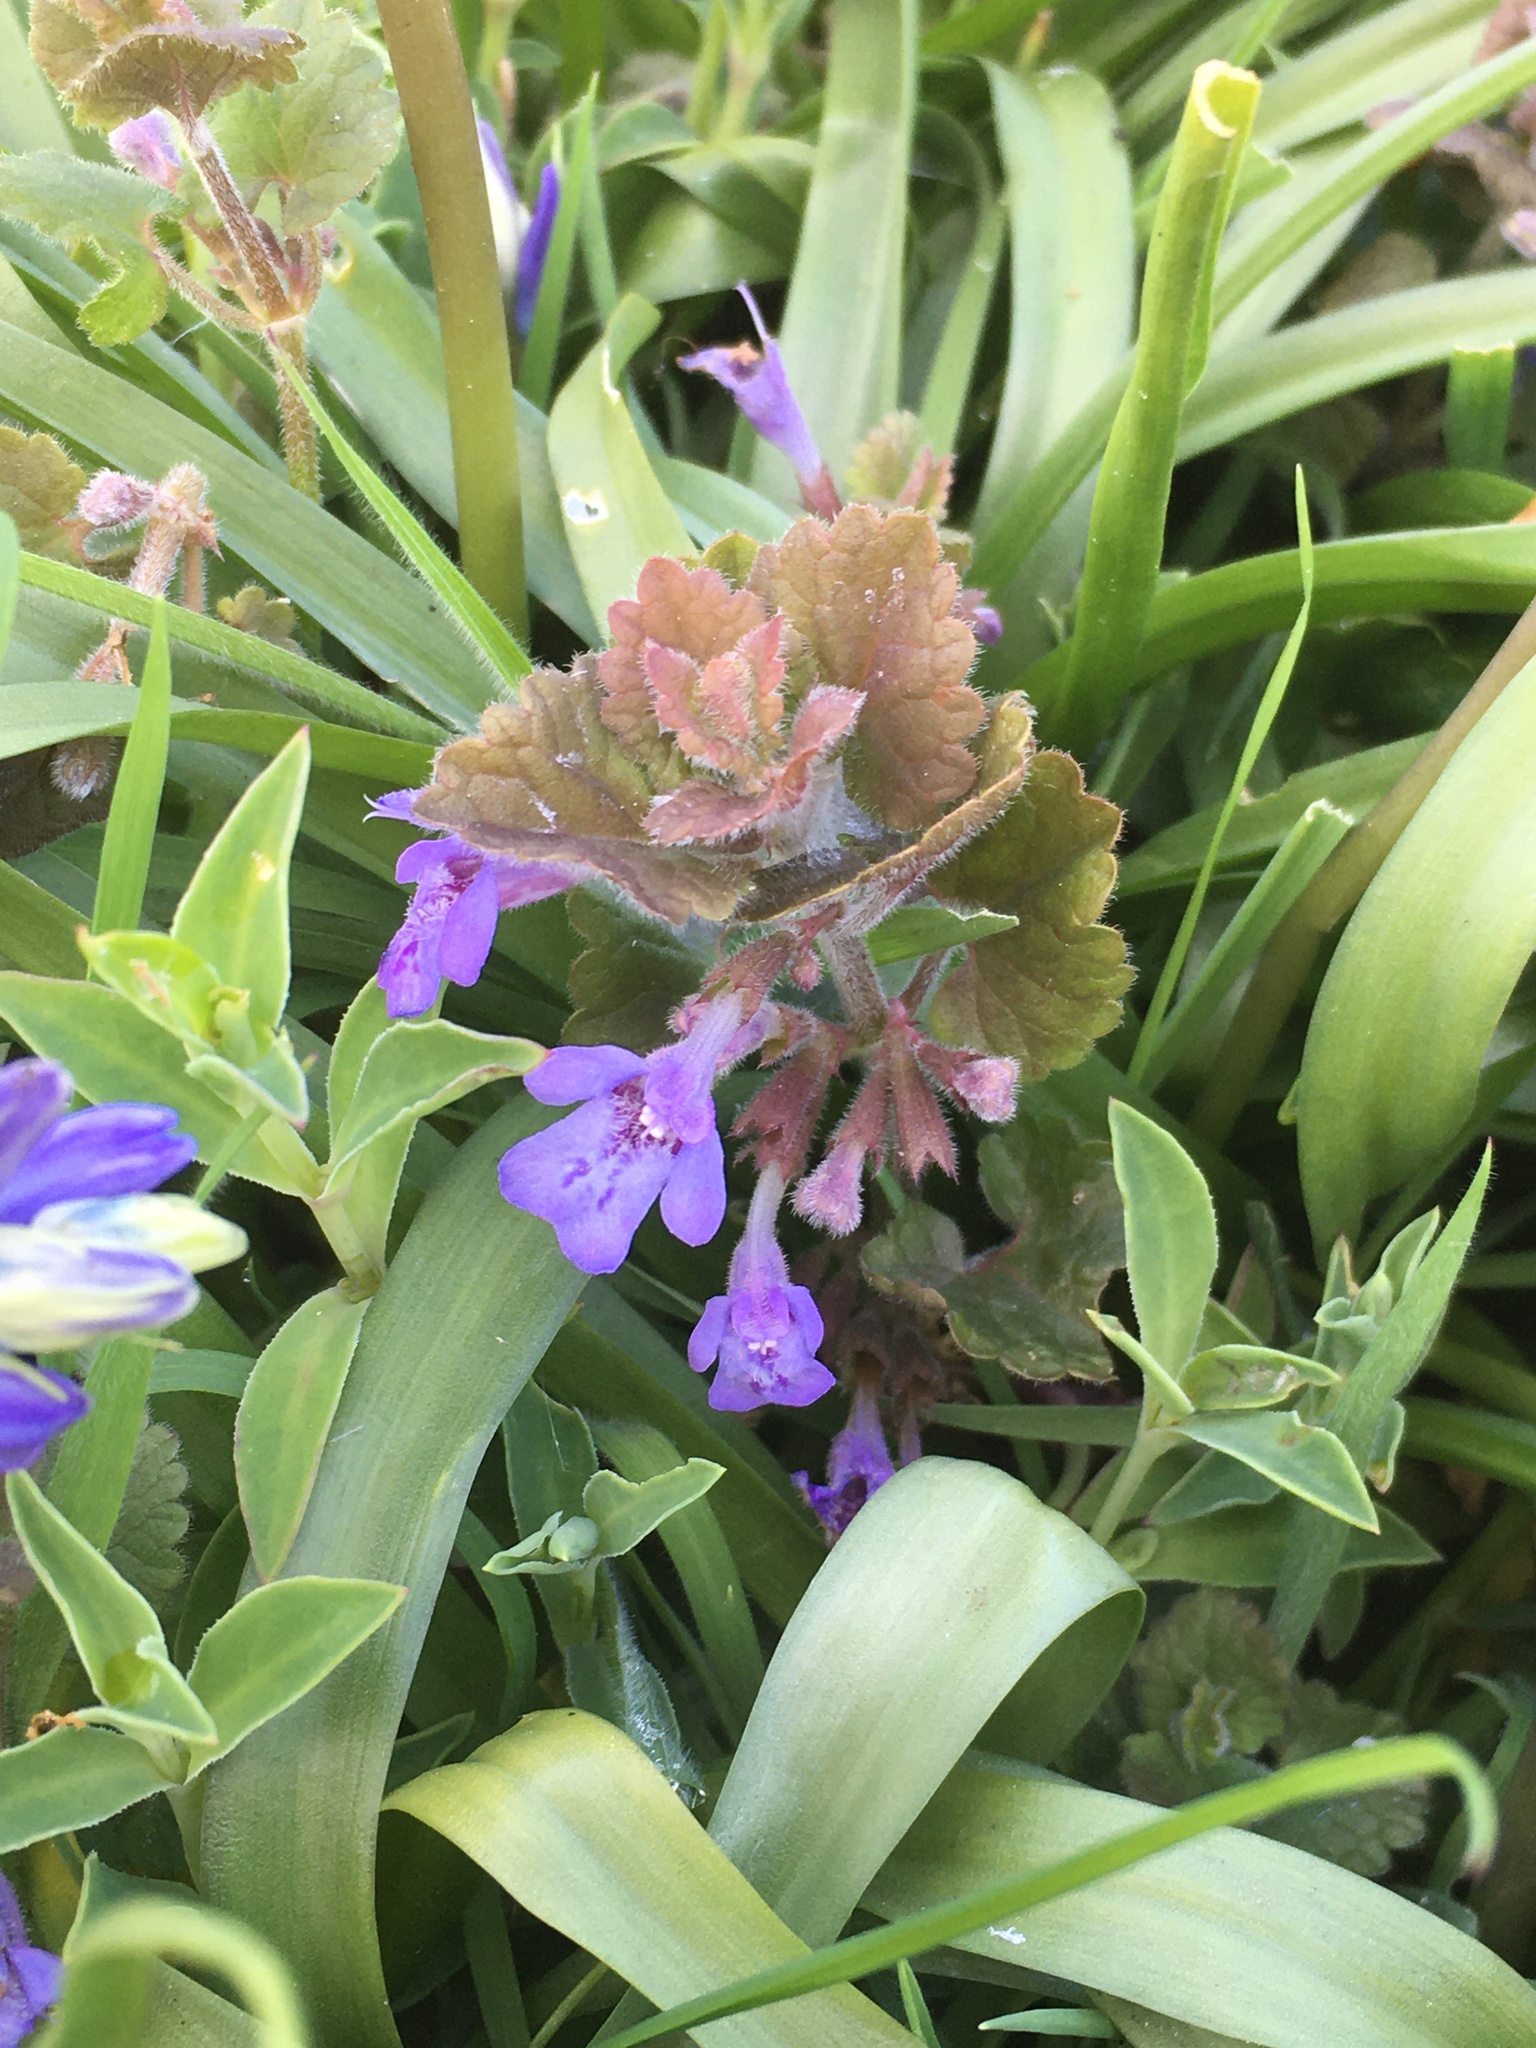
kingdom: Plantae
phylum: Tracheophyta
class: Magnoliopsida
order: Lamiales
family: Lamiaceae
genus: Glechoma
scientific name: Glechoma hederacea
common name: Ground ivy
